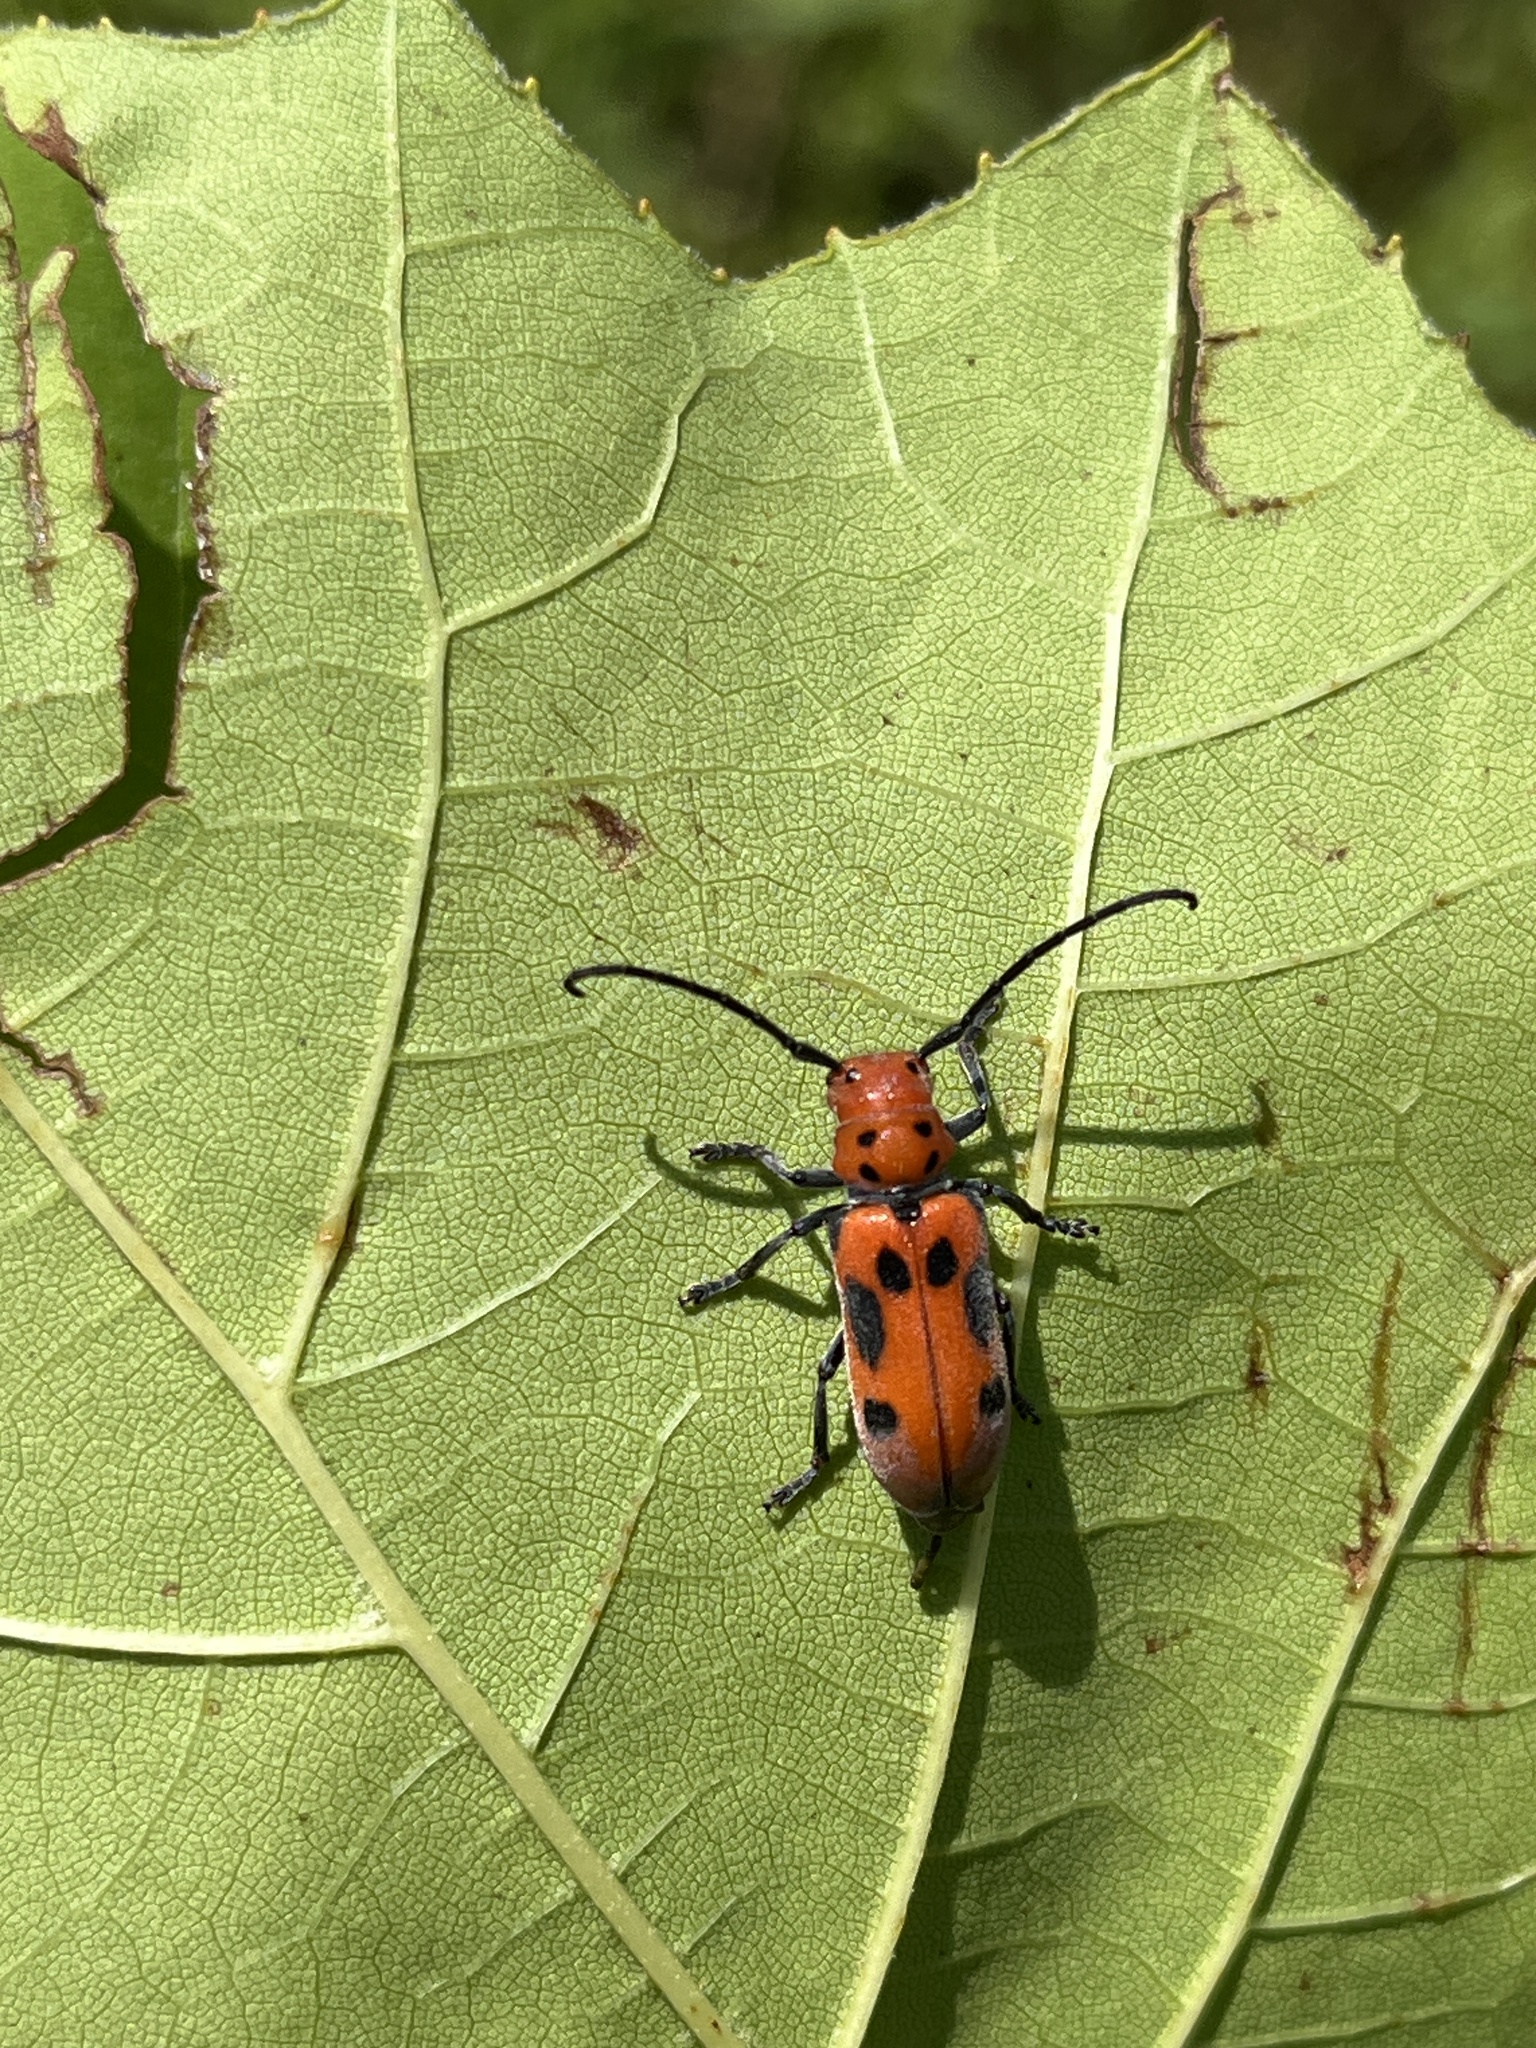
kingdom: Animalia
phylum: Arthropoda
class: Insecta
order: Coleoptera
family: Cerambycidae
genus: Tetraopes
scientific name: Tetraopes tetrophthalmus
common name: Red milkweed beetle
